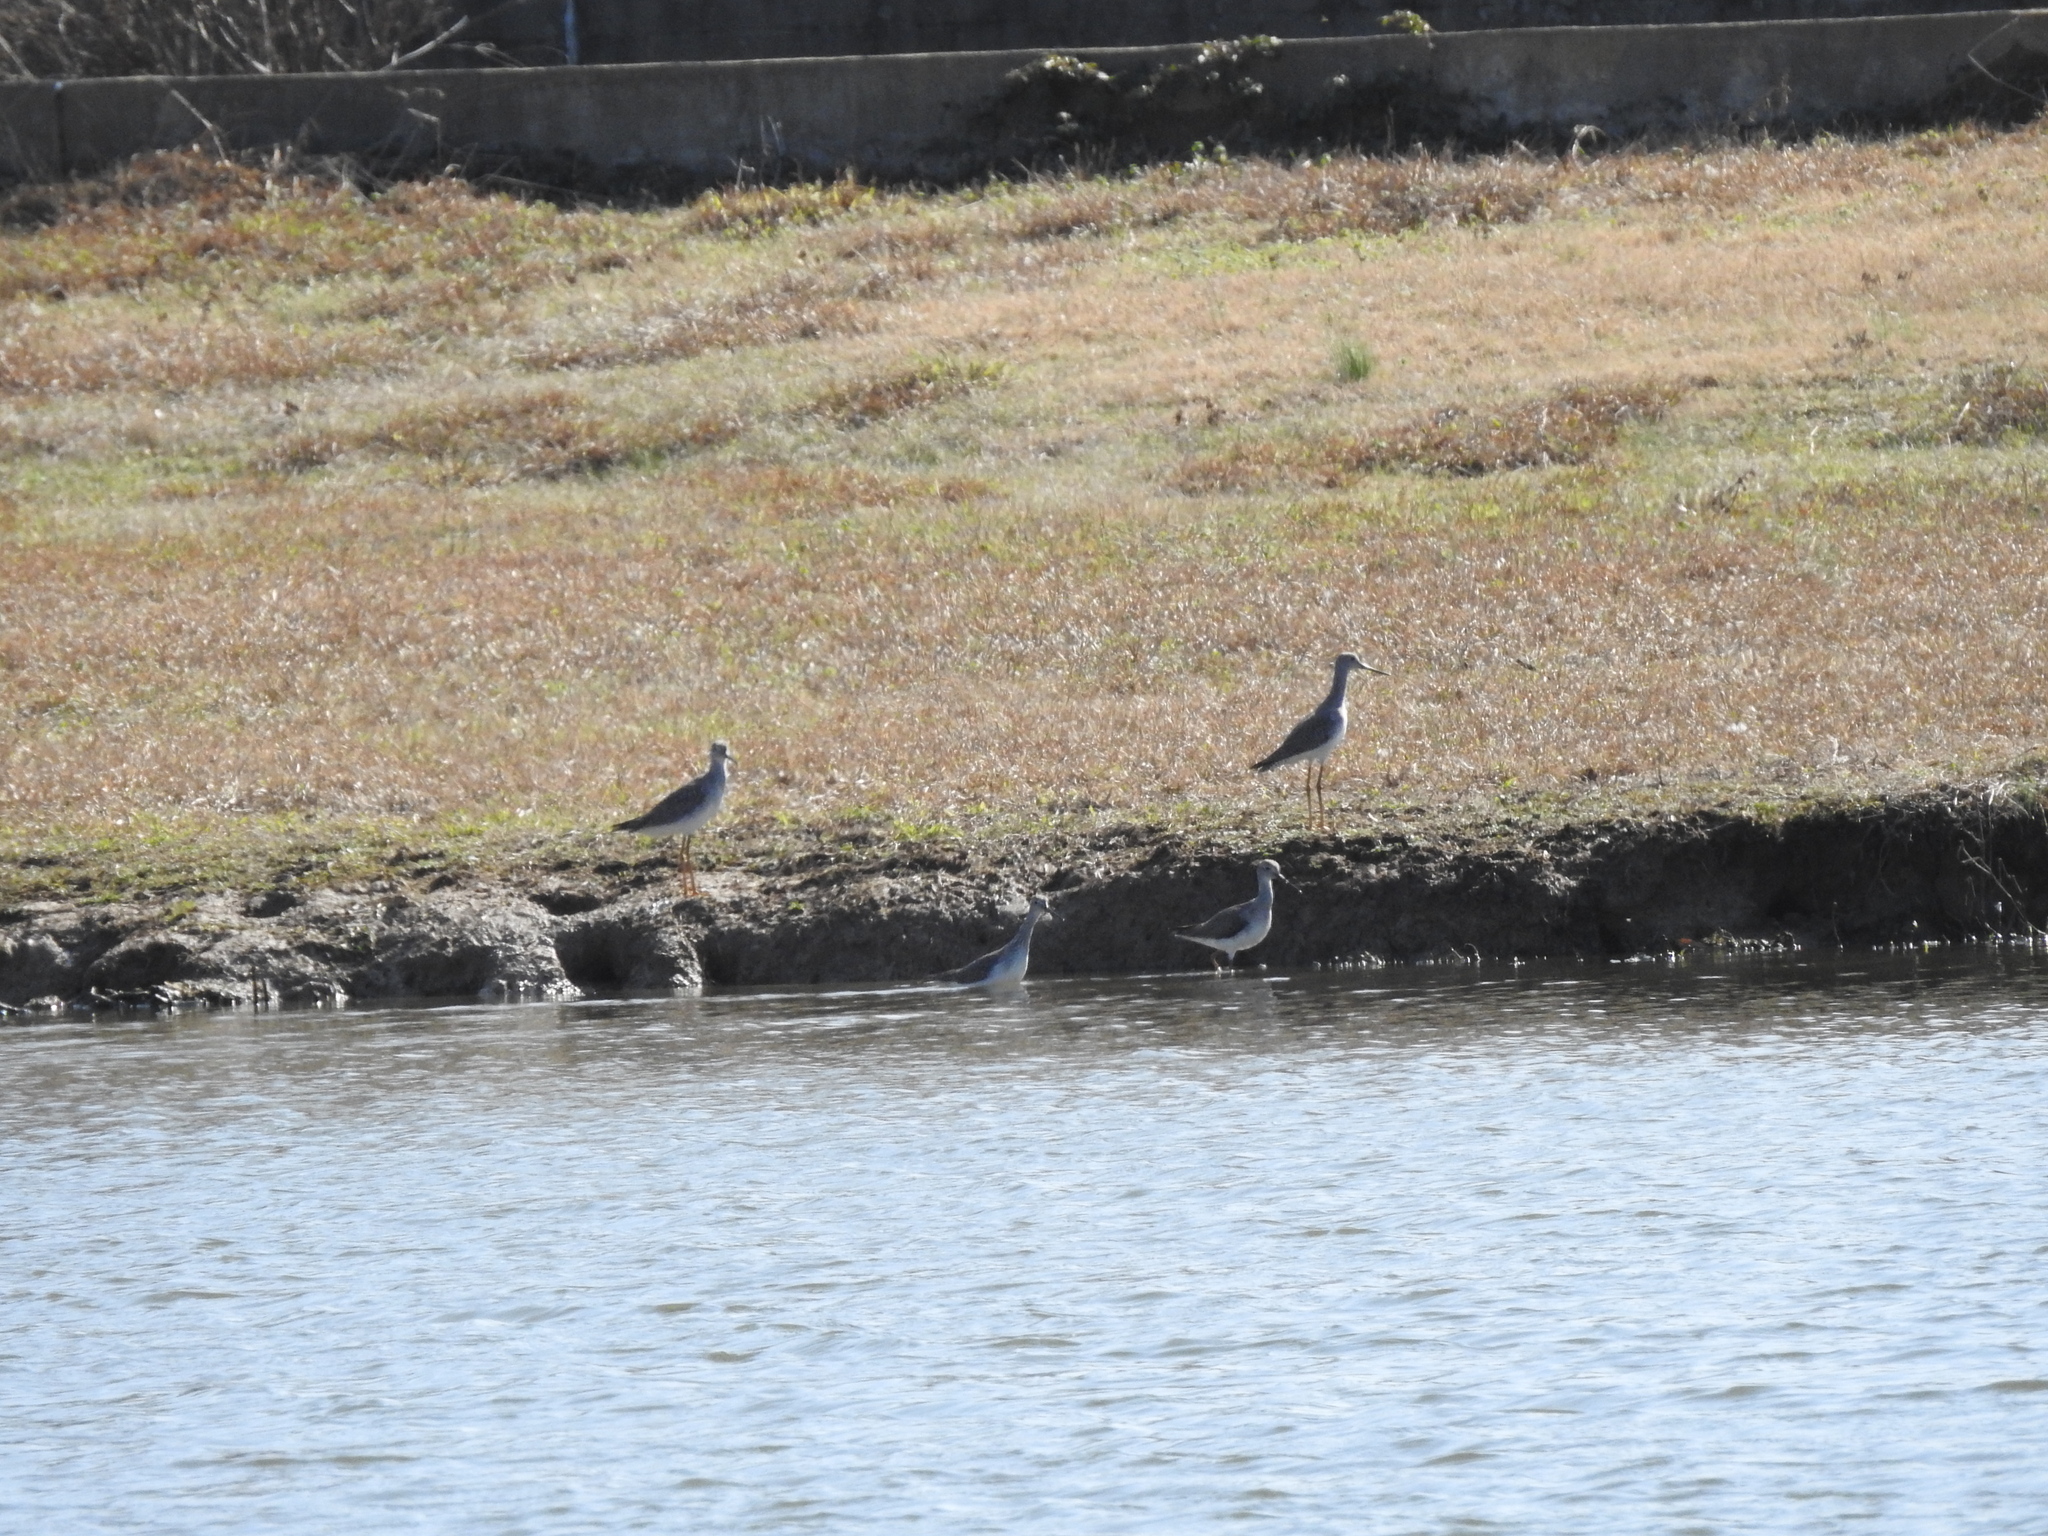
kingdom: Animalia
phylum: Chordata
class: Aves
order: Charadriiformes
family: Scolopacidae
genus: Tringa
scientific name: Tringa melanoleuca
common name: Greater yellowlegs
